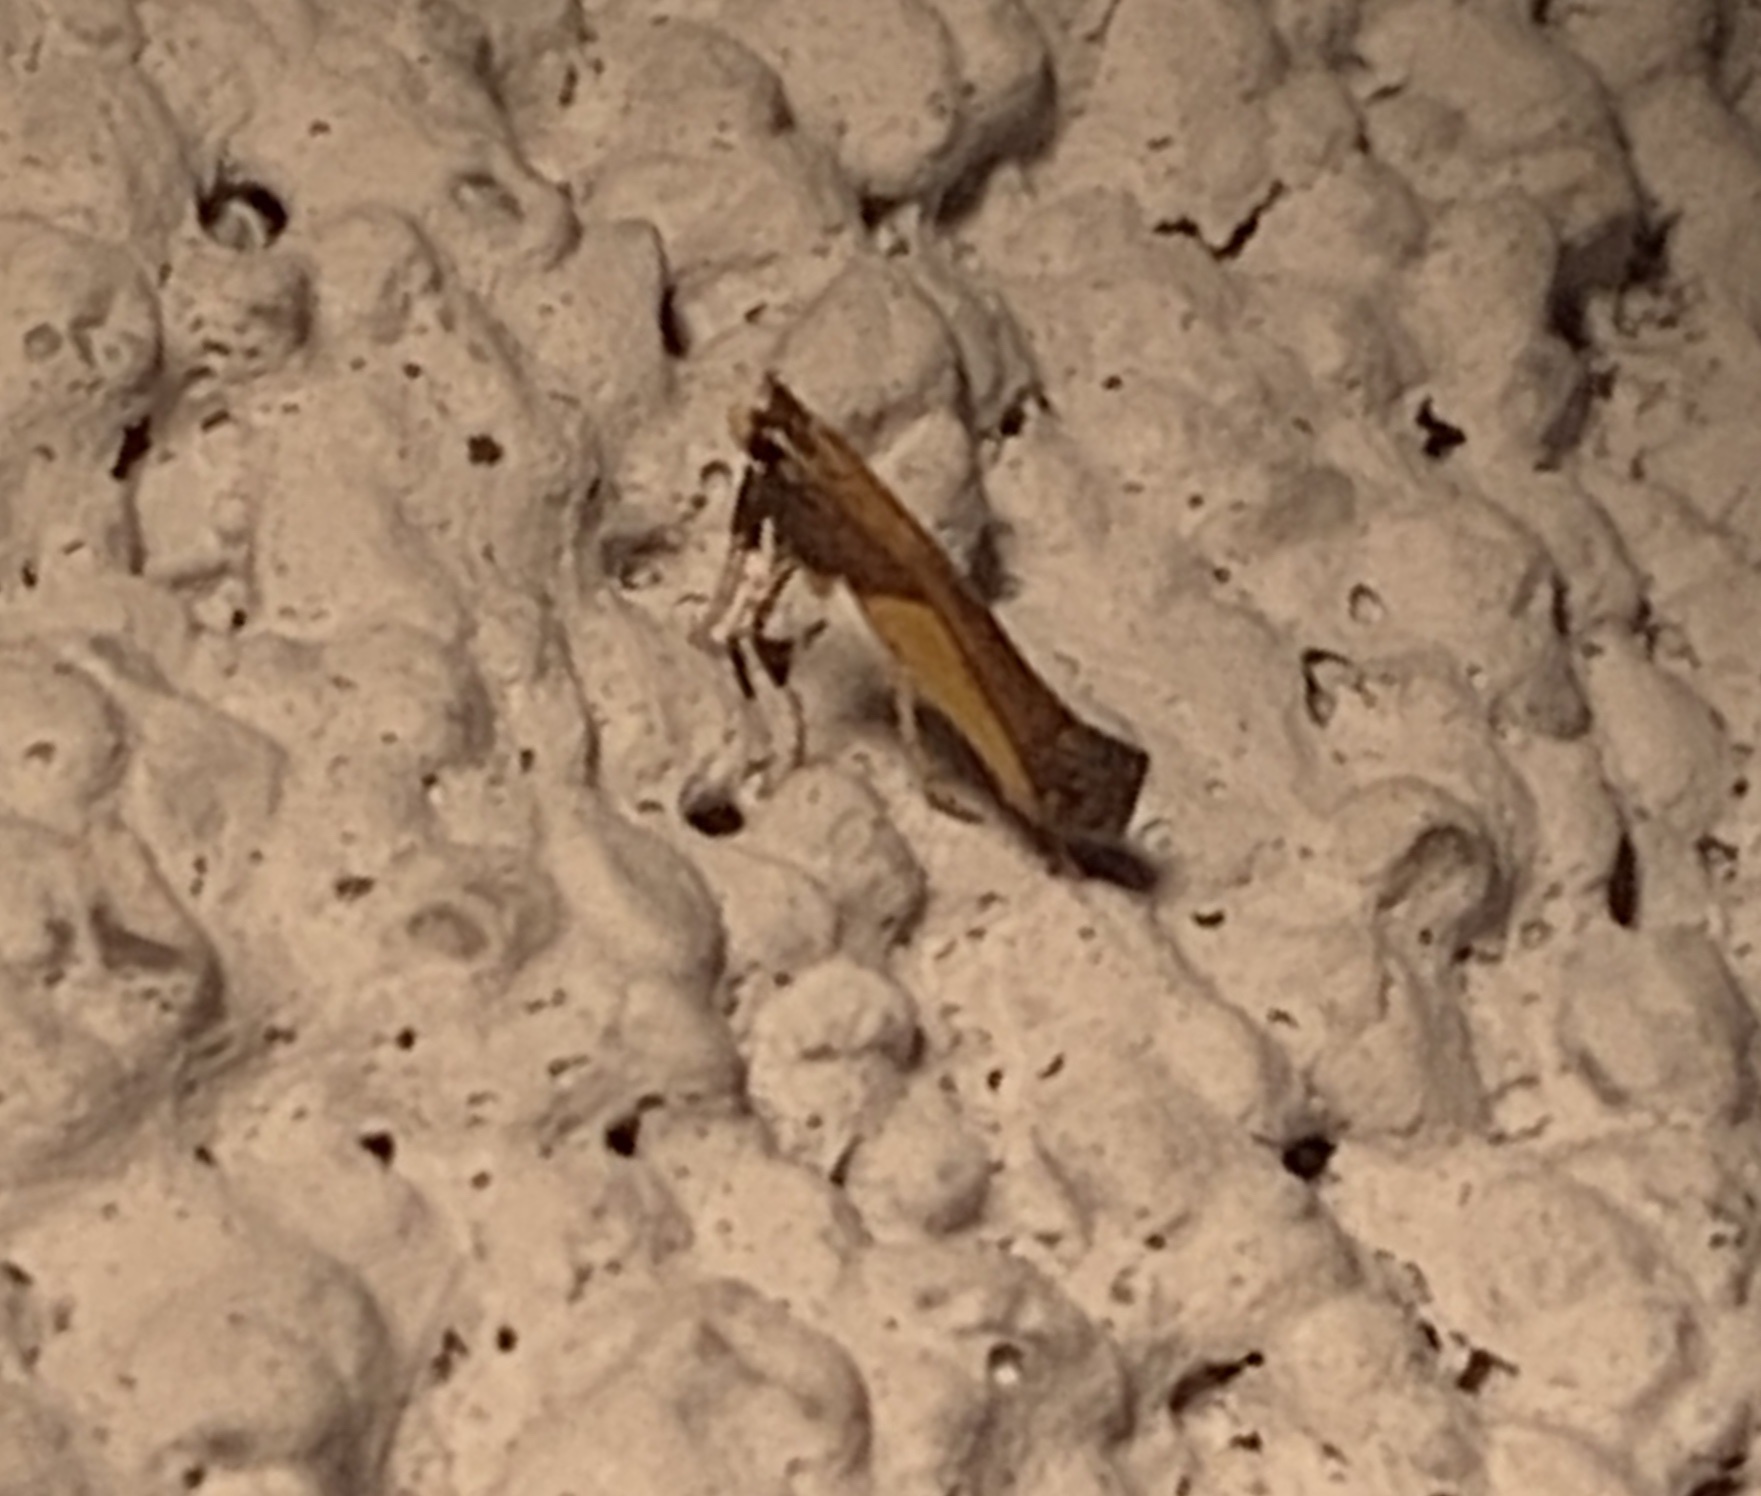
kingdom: Animalia
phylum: Arthropoda
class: Insecta
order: Lepidoptera
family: Gracillariidae
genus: Caloptilia
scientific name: Caloptilia superbifrontella
